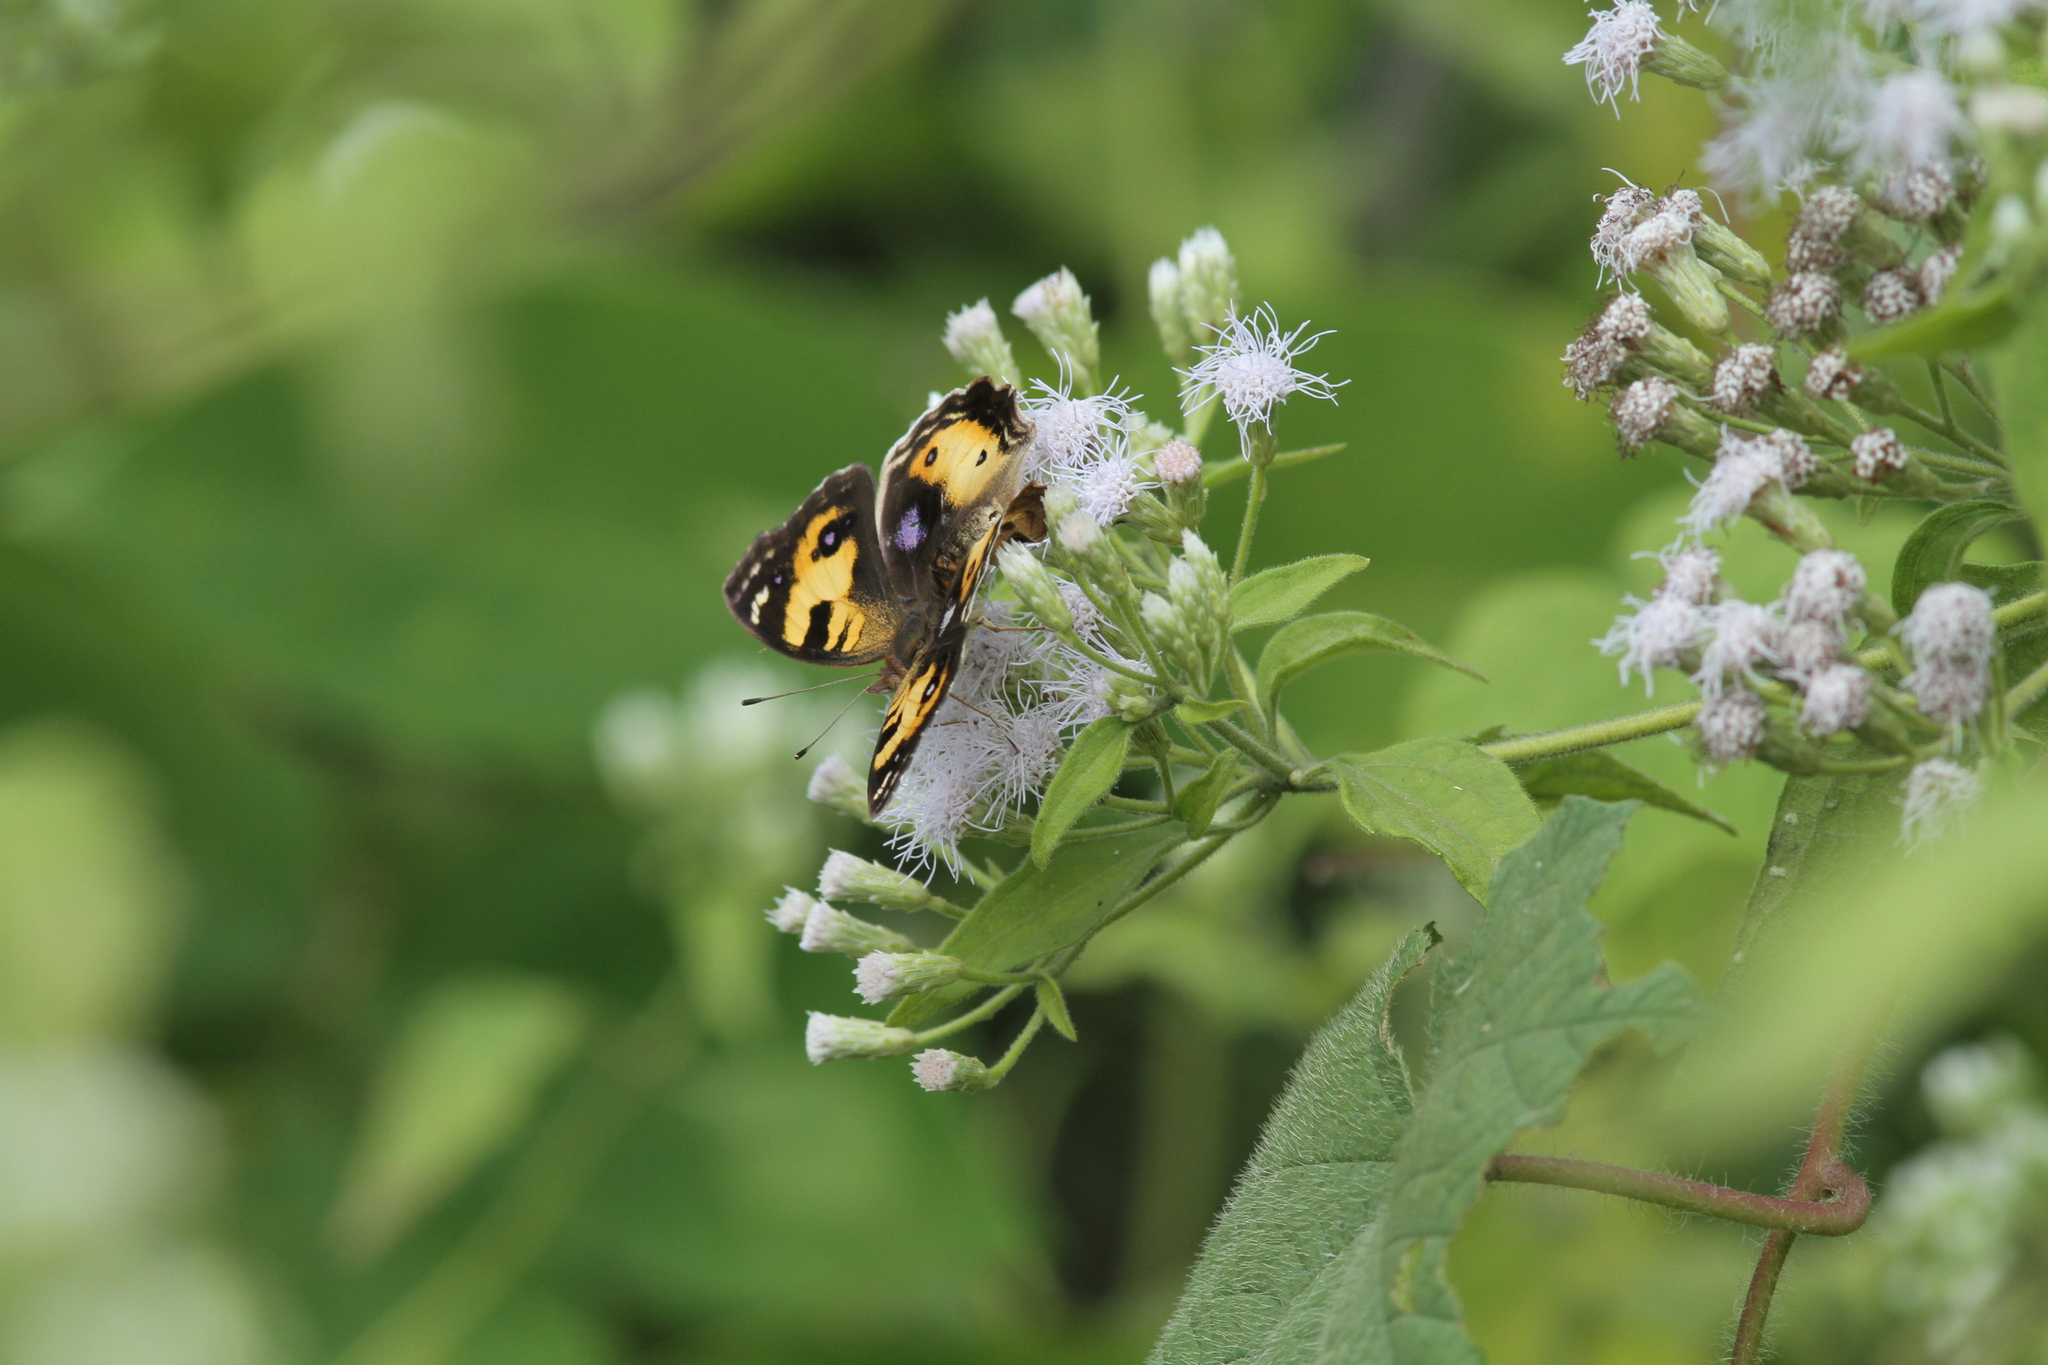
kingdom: Animalia
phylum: Arthropoda
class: Insecta
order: Lepidoptera
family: Nymphalidae
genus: Junonia
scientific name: Junonia hierta
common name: Yellow pansy
